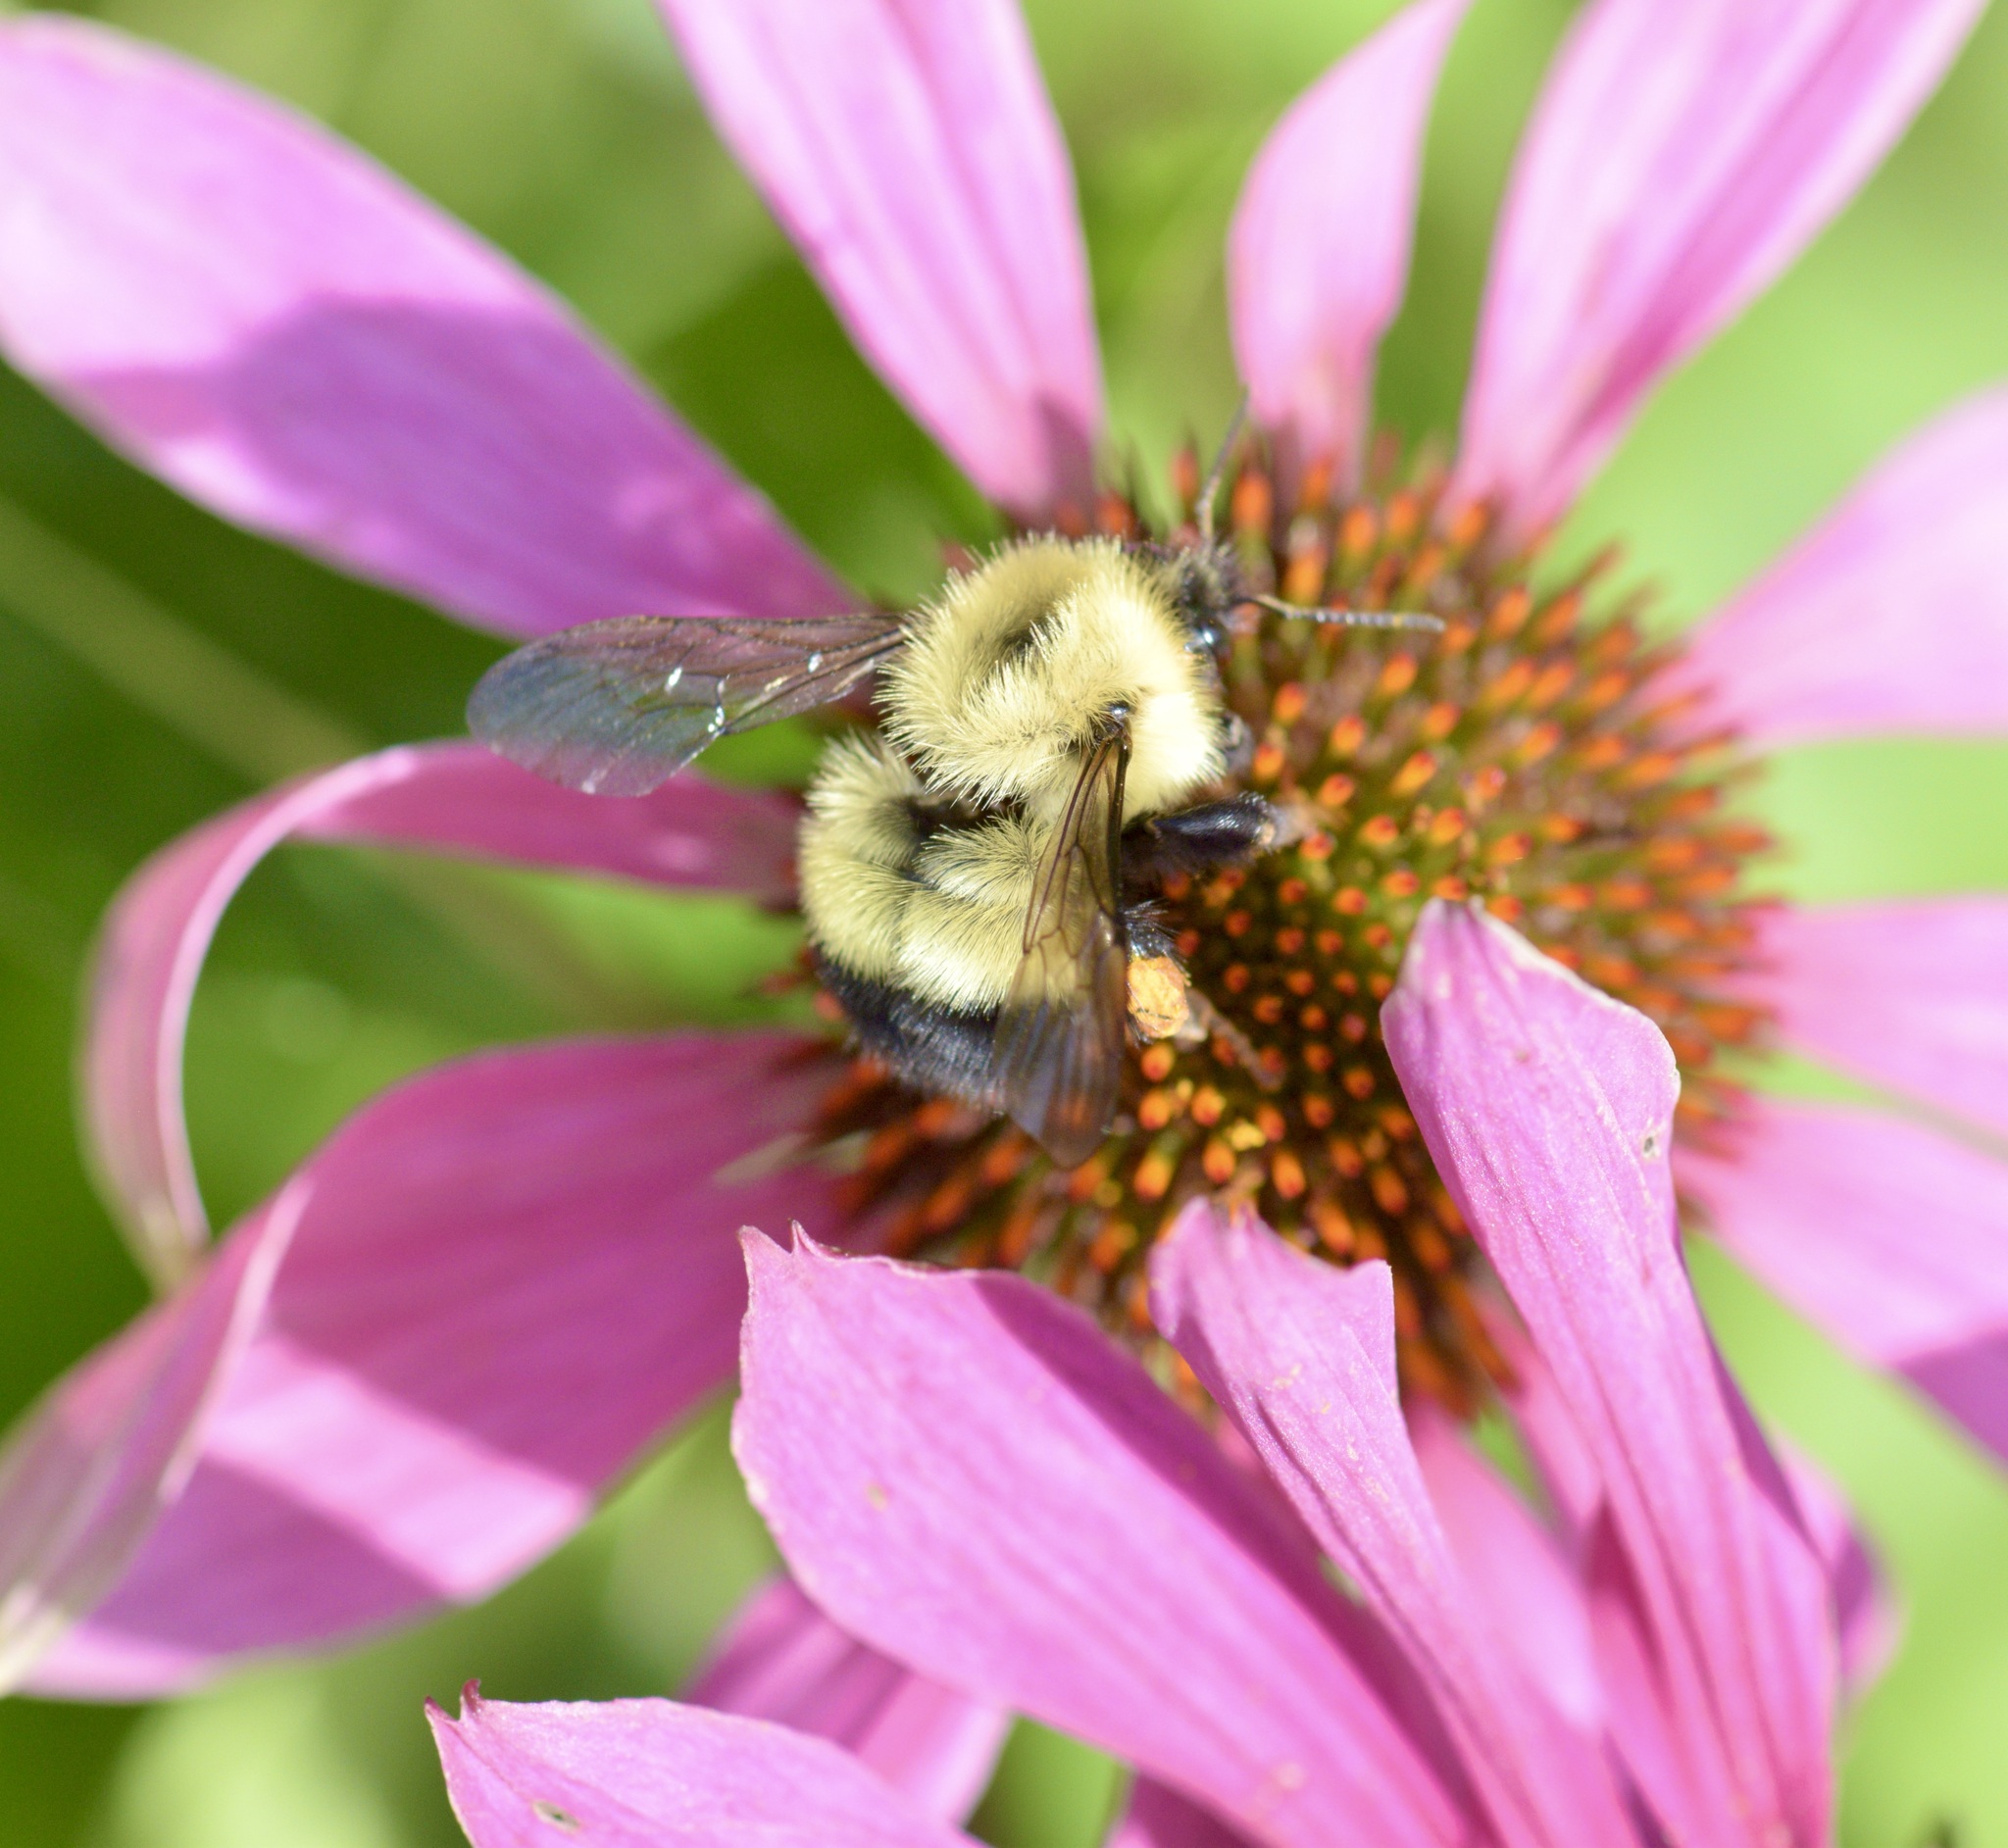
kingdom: Animalia
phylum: Arthropoda
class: Insecta
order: Hymenoptera
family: Apidae
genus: Pyrobombus
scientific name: Pyrobombus
